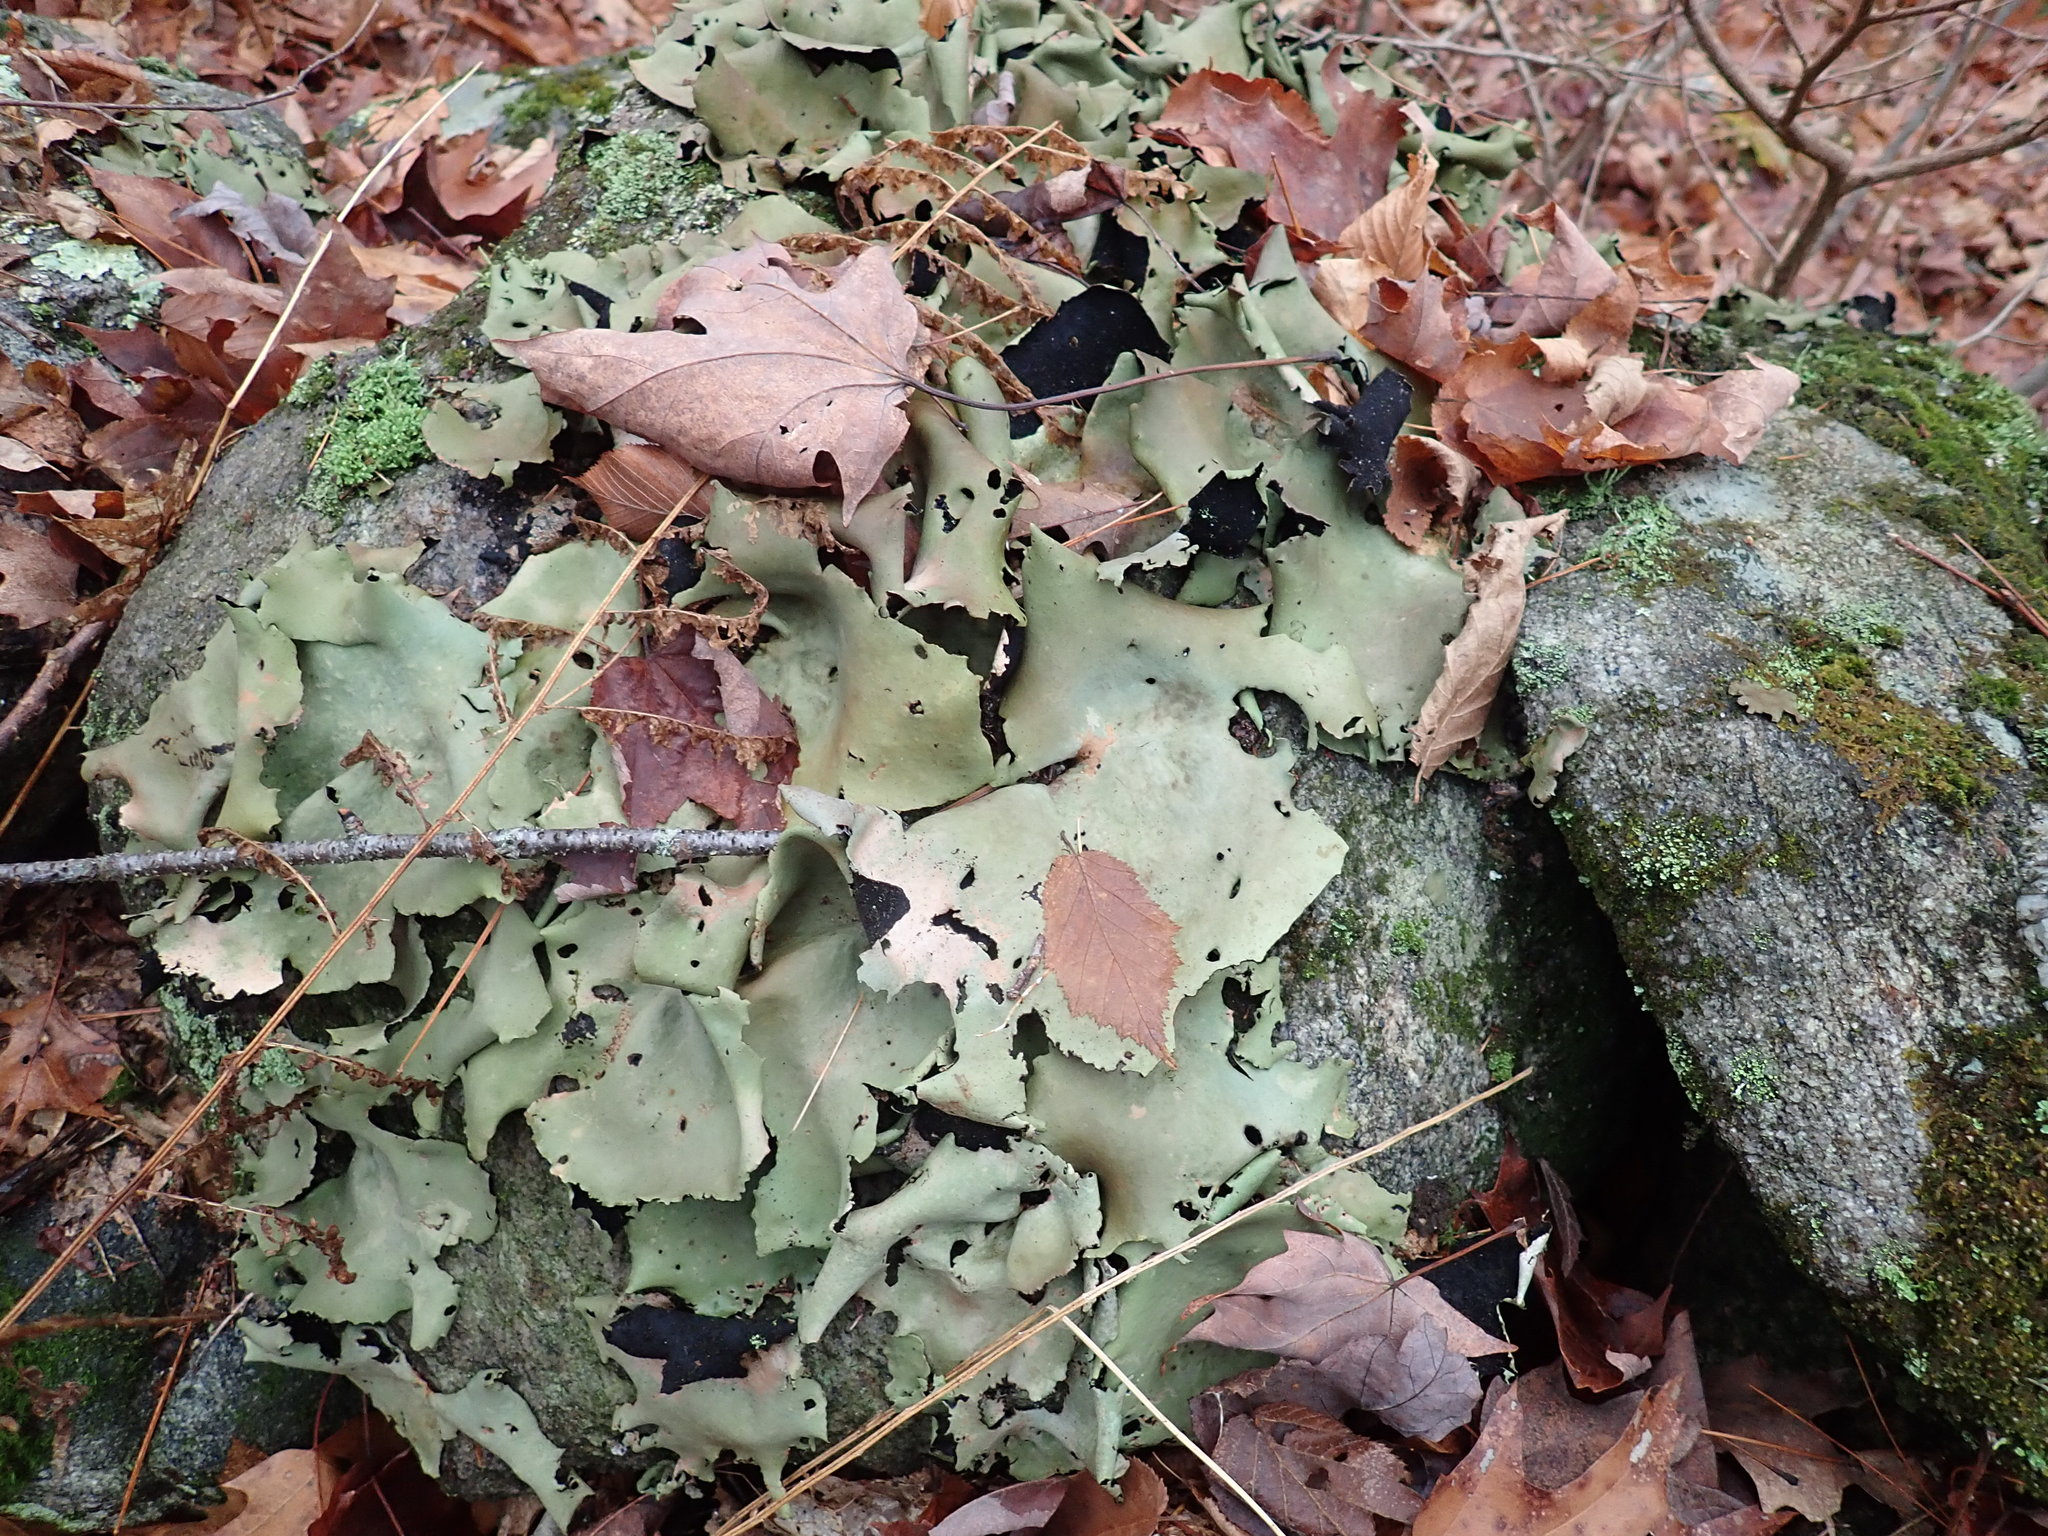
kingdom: Fungi
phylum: Ascomycota
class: Lecanoromycetes
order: Umbilicariales
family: Umbilicariaceae
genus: Umbilicaria
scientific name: Umbilicaria mammulata
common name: Smooth rock tripe
